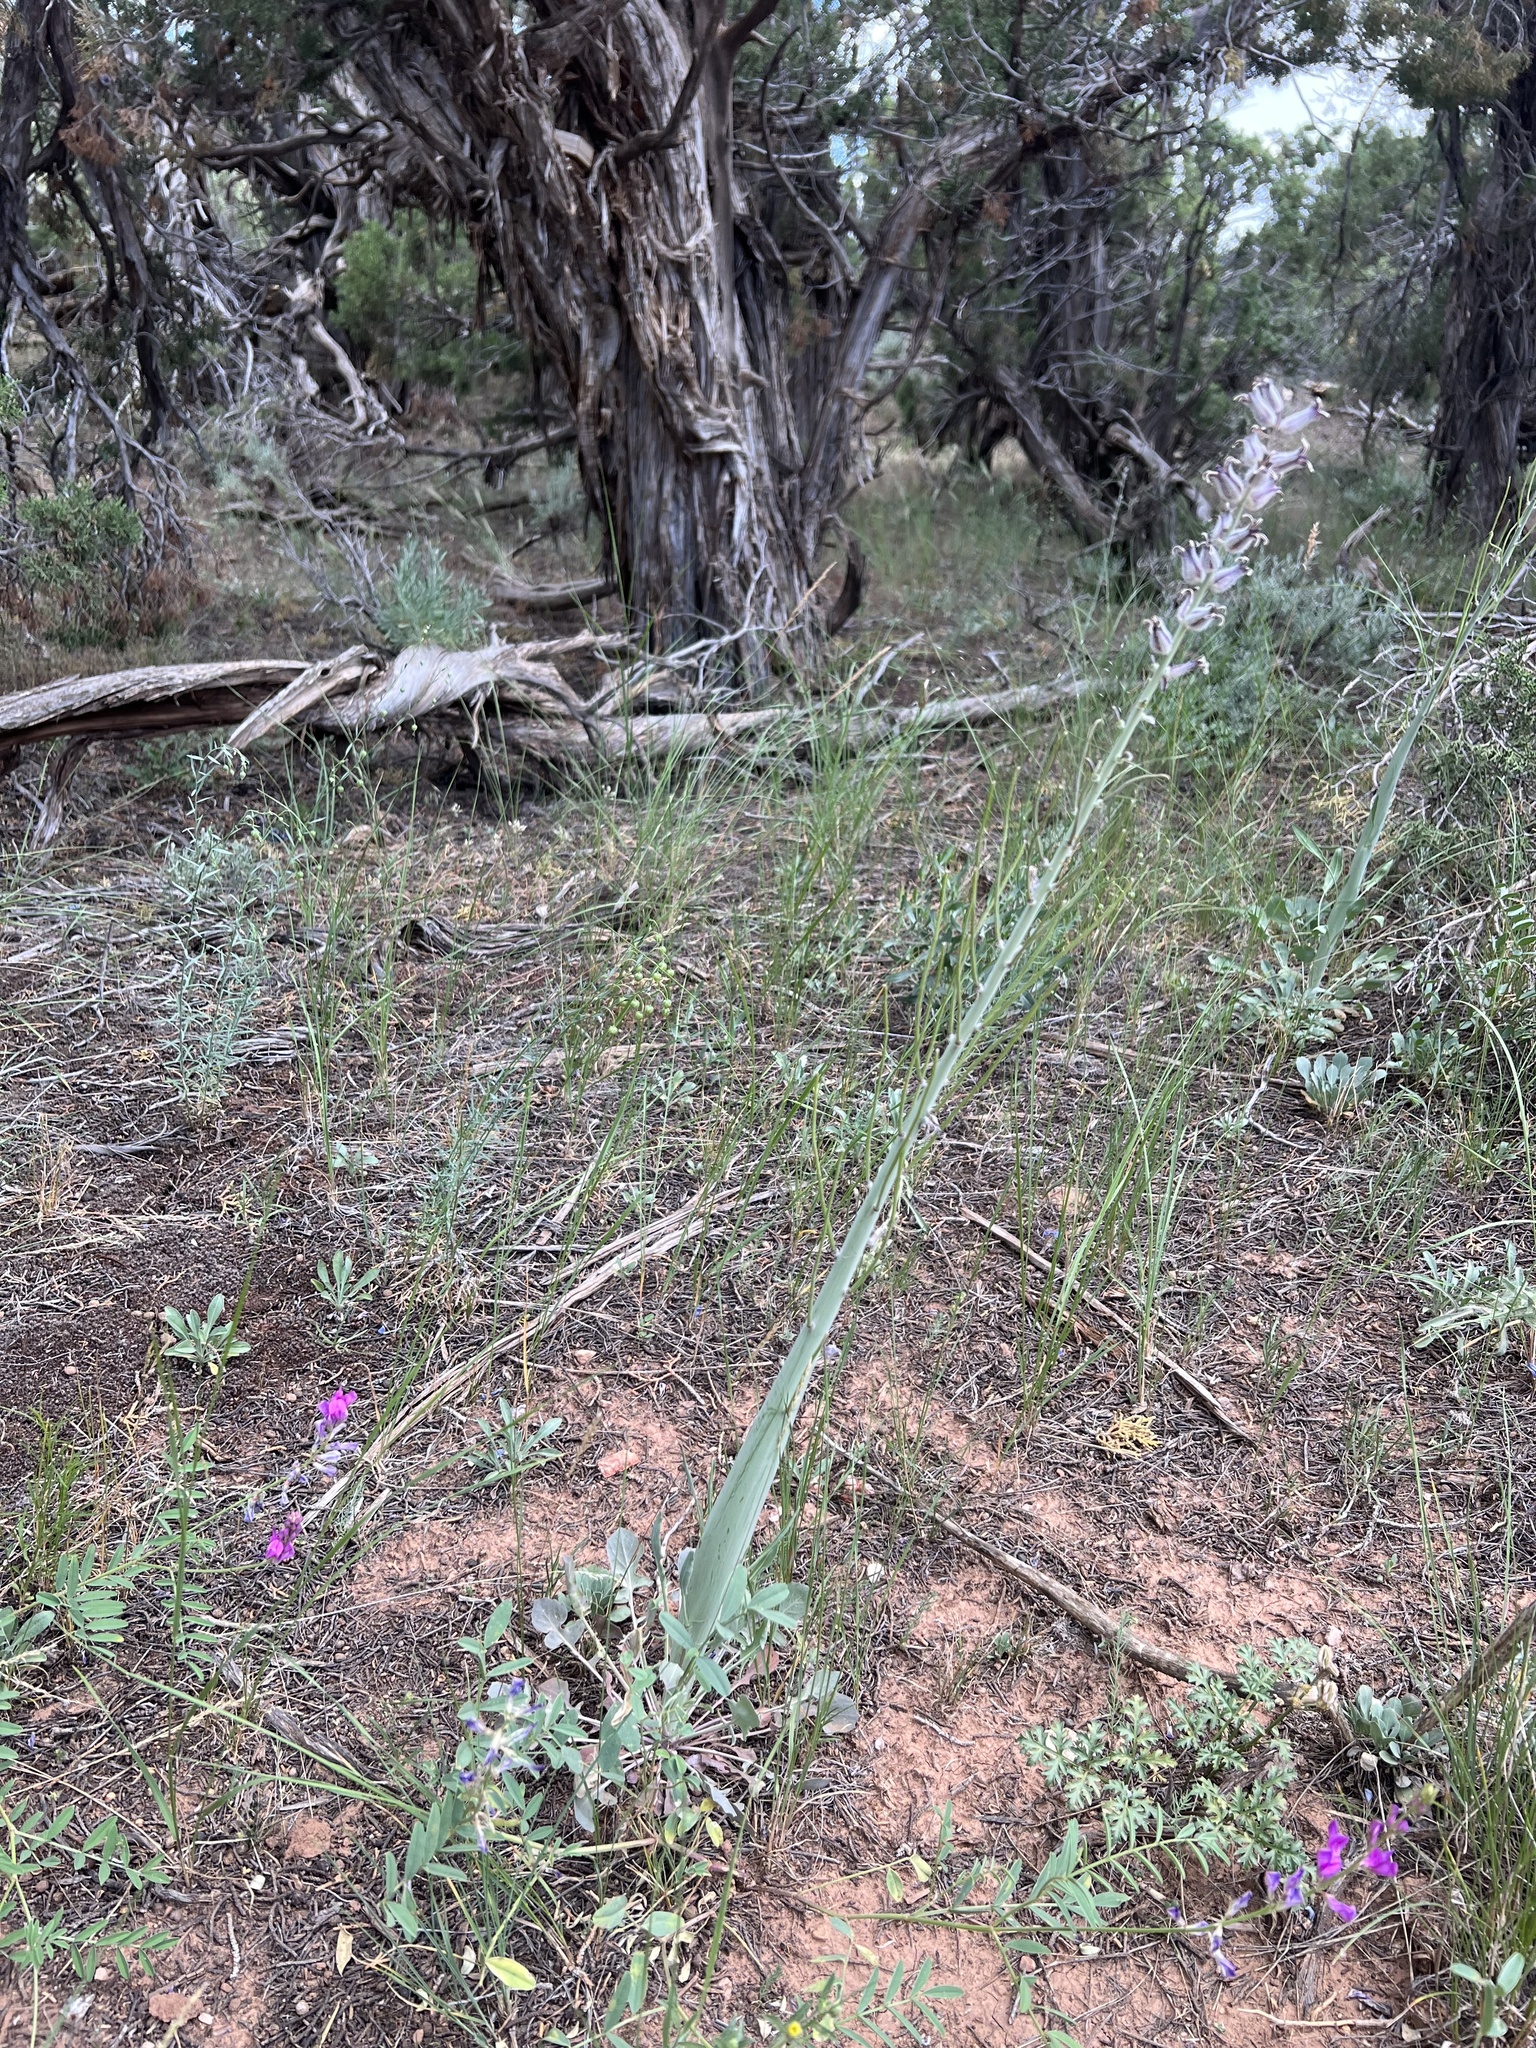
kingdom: Plantae
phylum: Tracheophyta
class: Magnoliopsida
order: Brassicales
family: Brassicaceae
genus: Streptanthus
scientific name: Streptanthus crassicaulis
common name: Thick-stem wild cabbage
